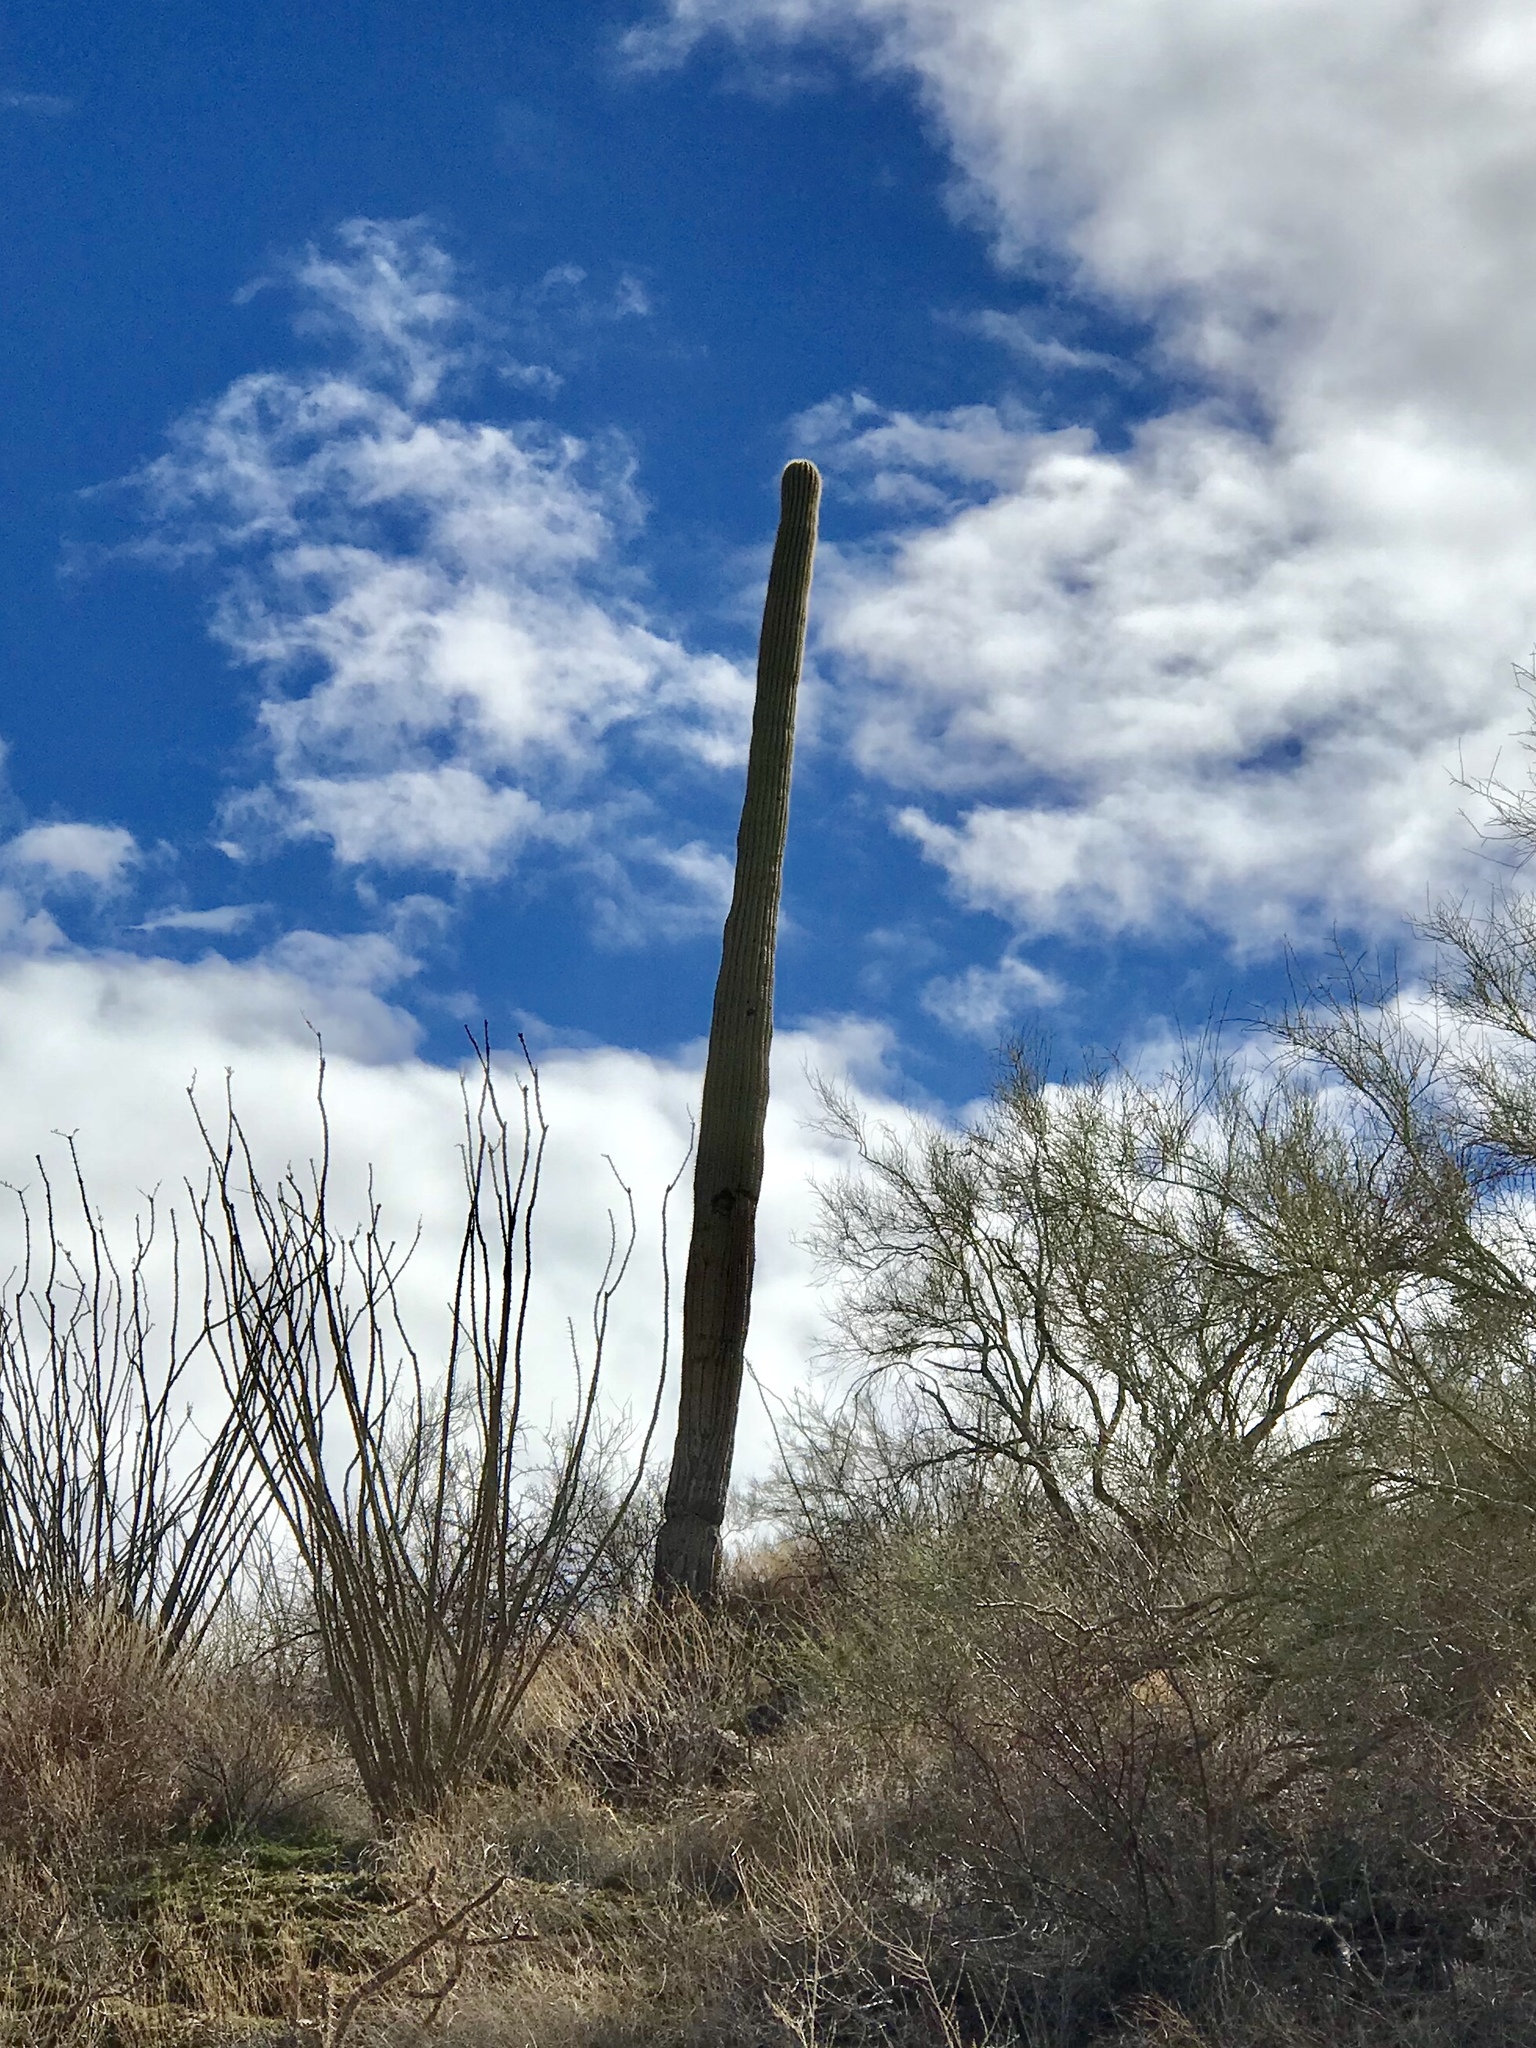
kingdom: Plantae
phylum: Tracheophyta
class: Magnoliopsida
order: Caryophyllales
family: Cactaceae
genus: Carnegiea
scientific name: Carnegiea gigantea
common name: Saguaro
